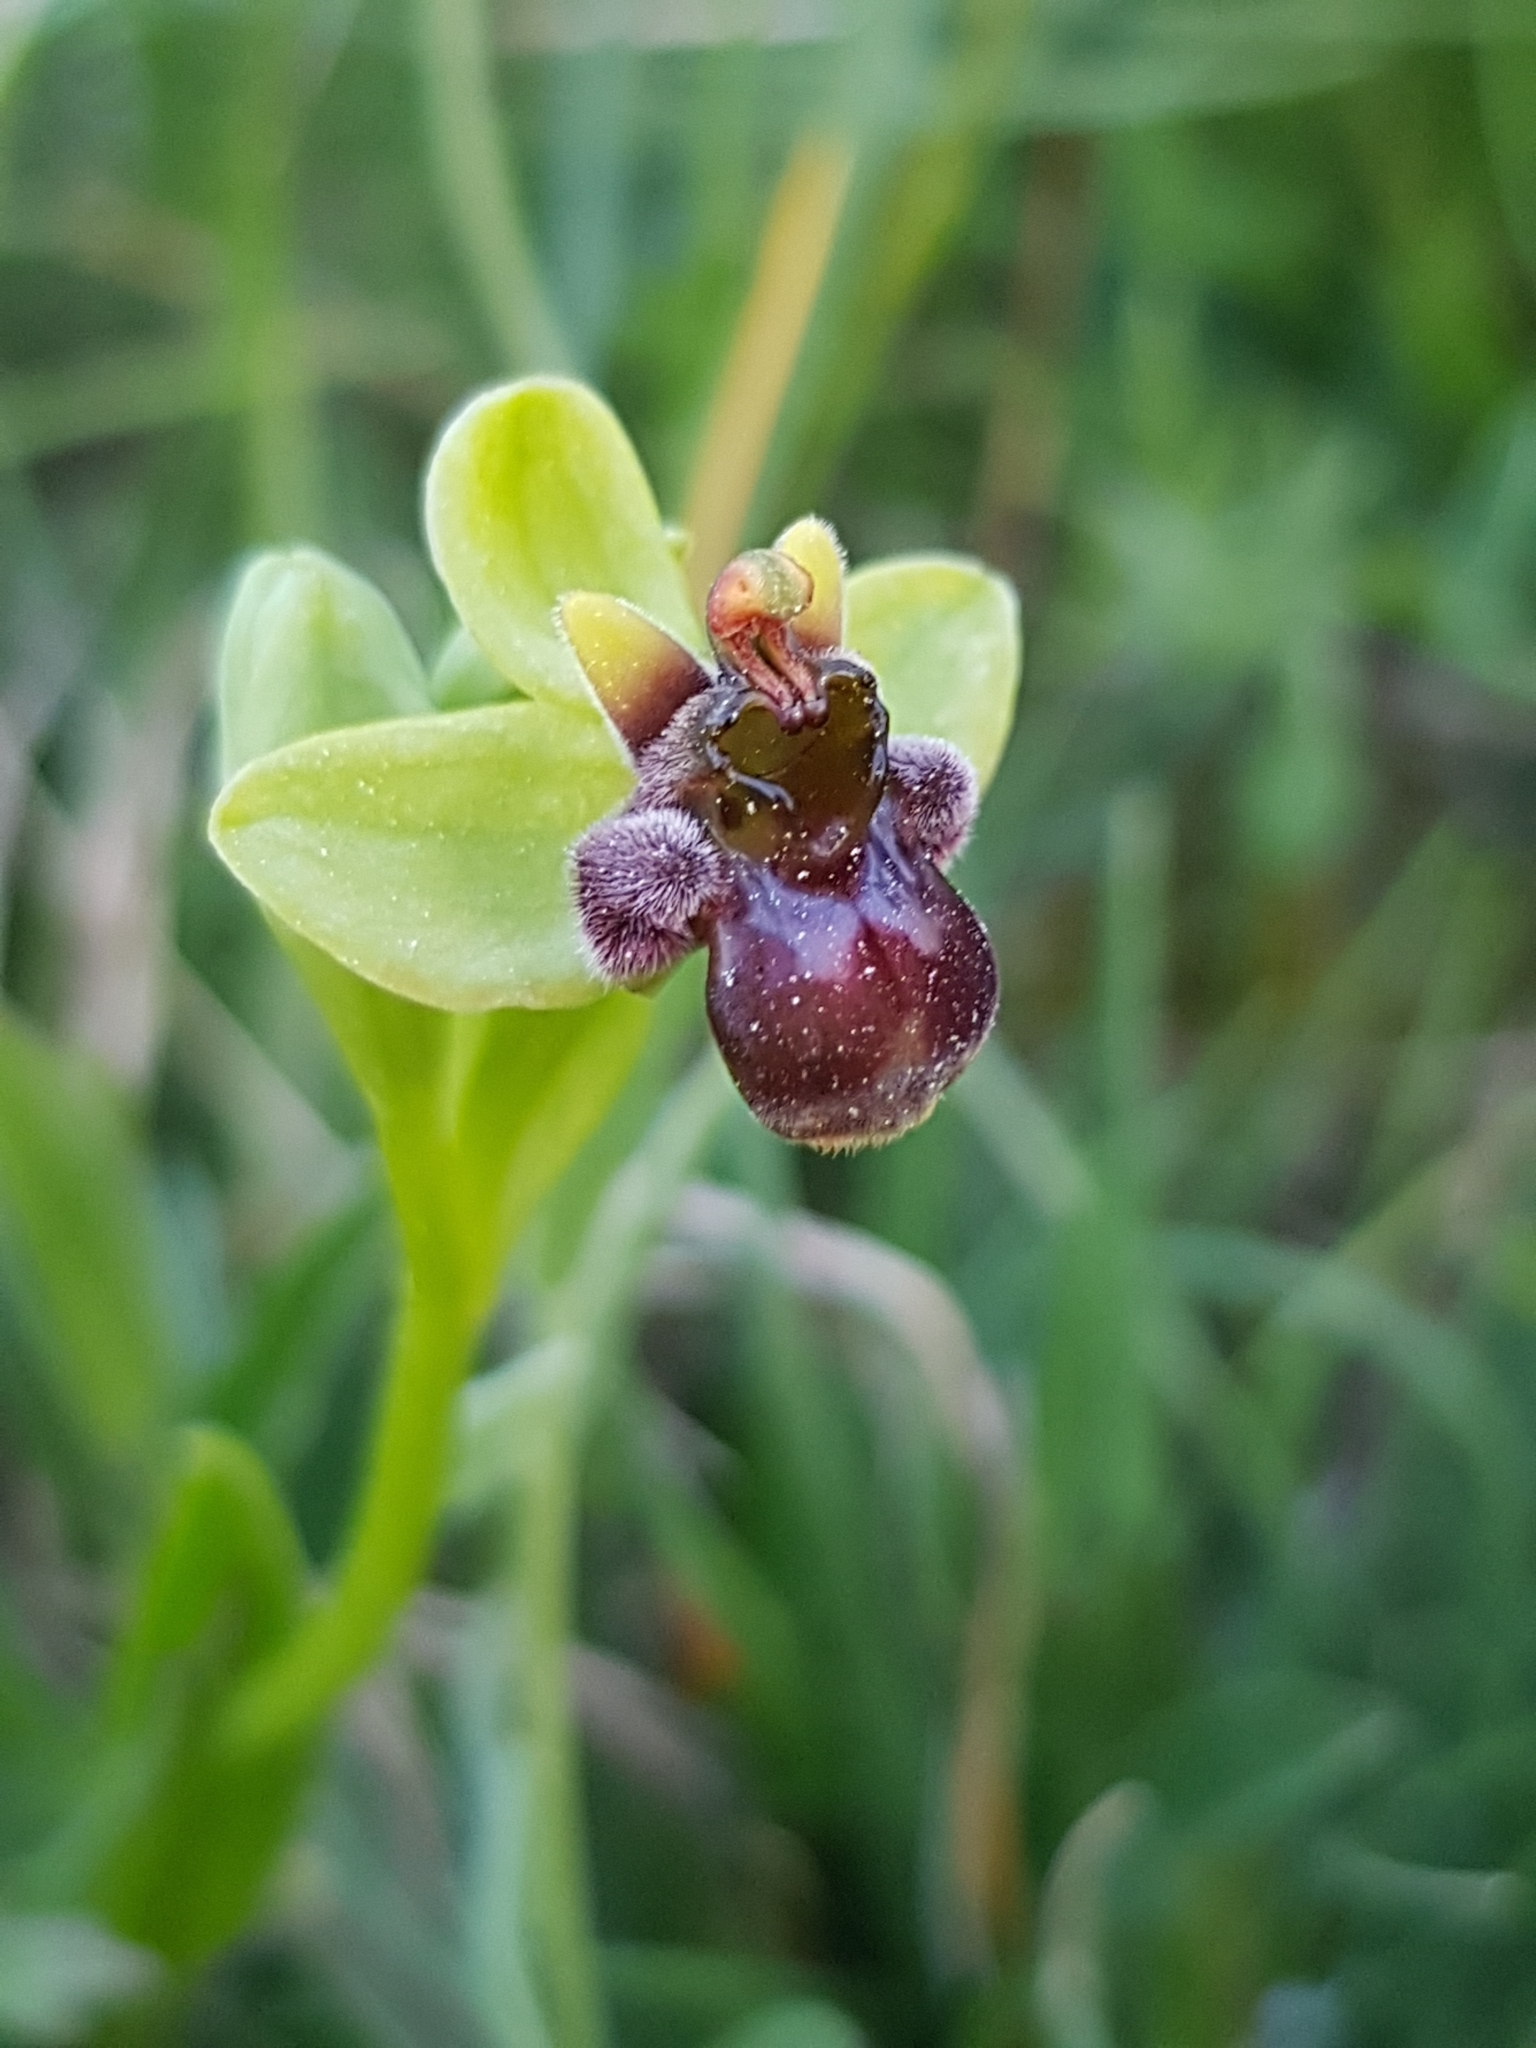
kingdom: Plantae
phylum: Tracheophyta
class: Liliopsida
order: Asparagales
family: Orchidaceae
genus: Ophrys
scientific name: Ophrys bombyliflora
